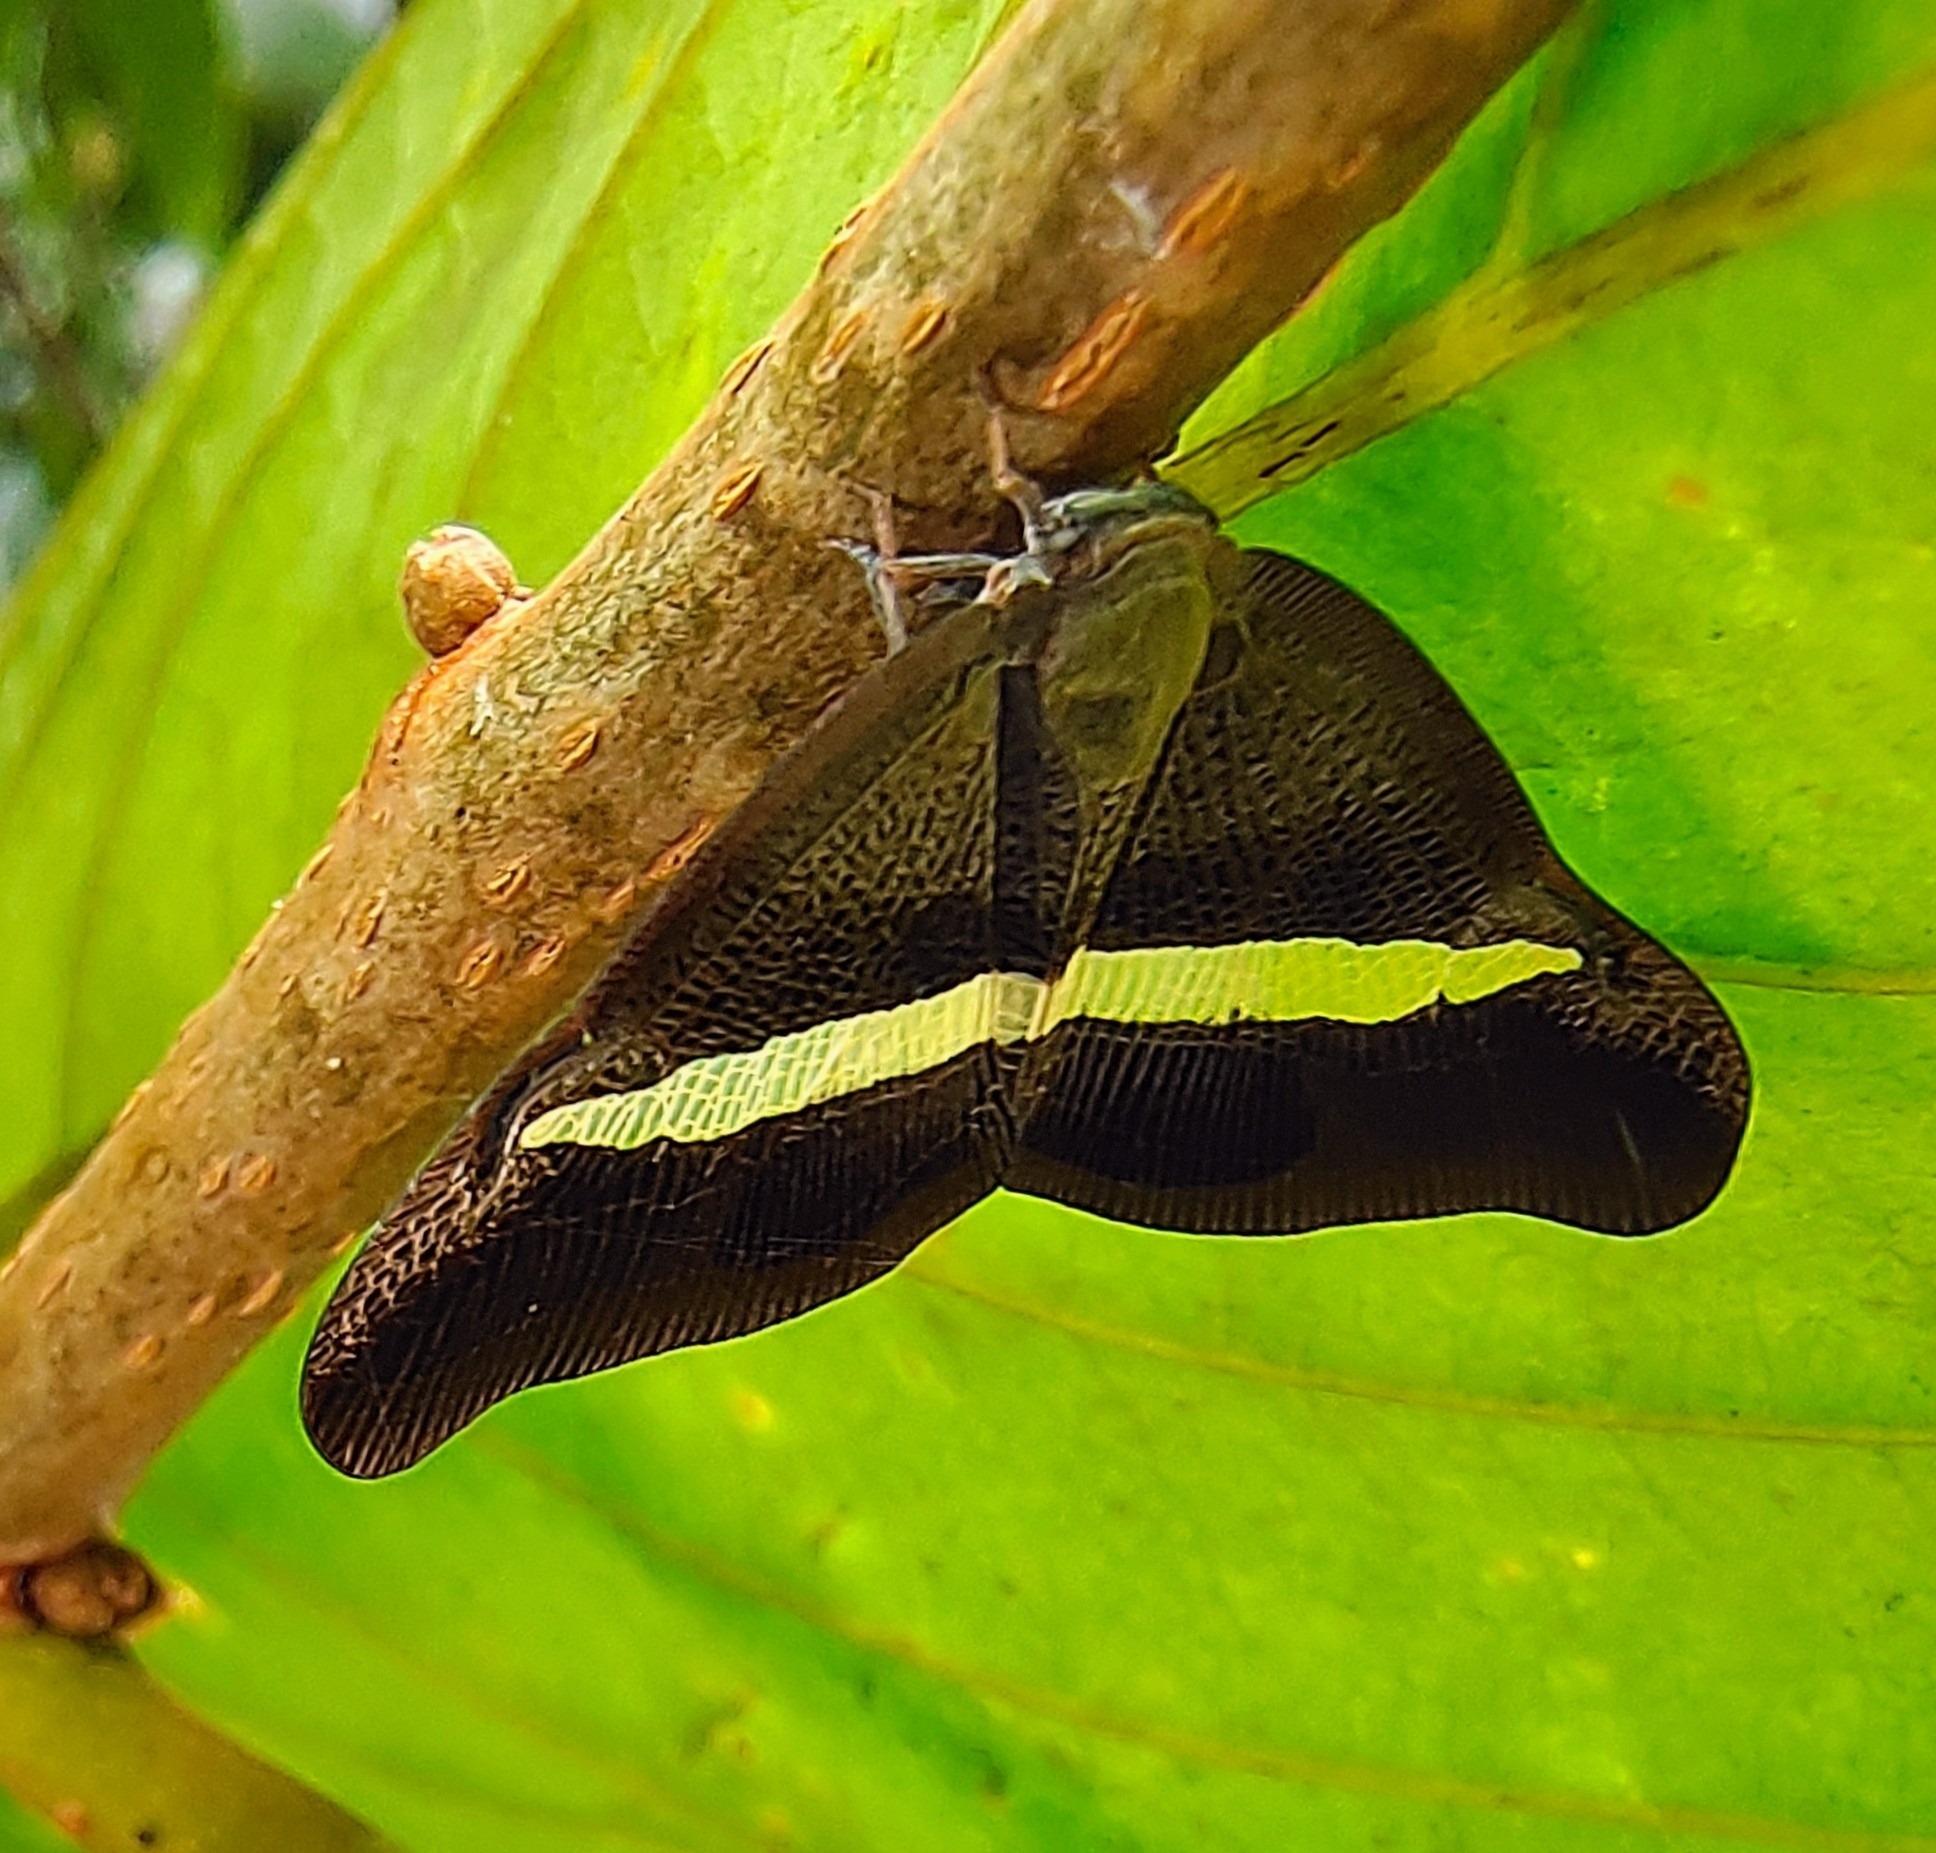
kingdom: Animalia
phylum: Arthropoda
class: Insecta
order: Hemiptera
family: Ricaniidae
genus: Pochazia
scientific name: Pochazia sinuata
